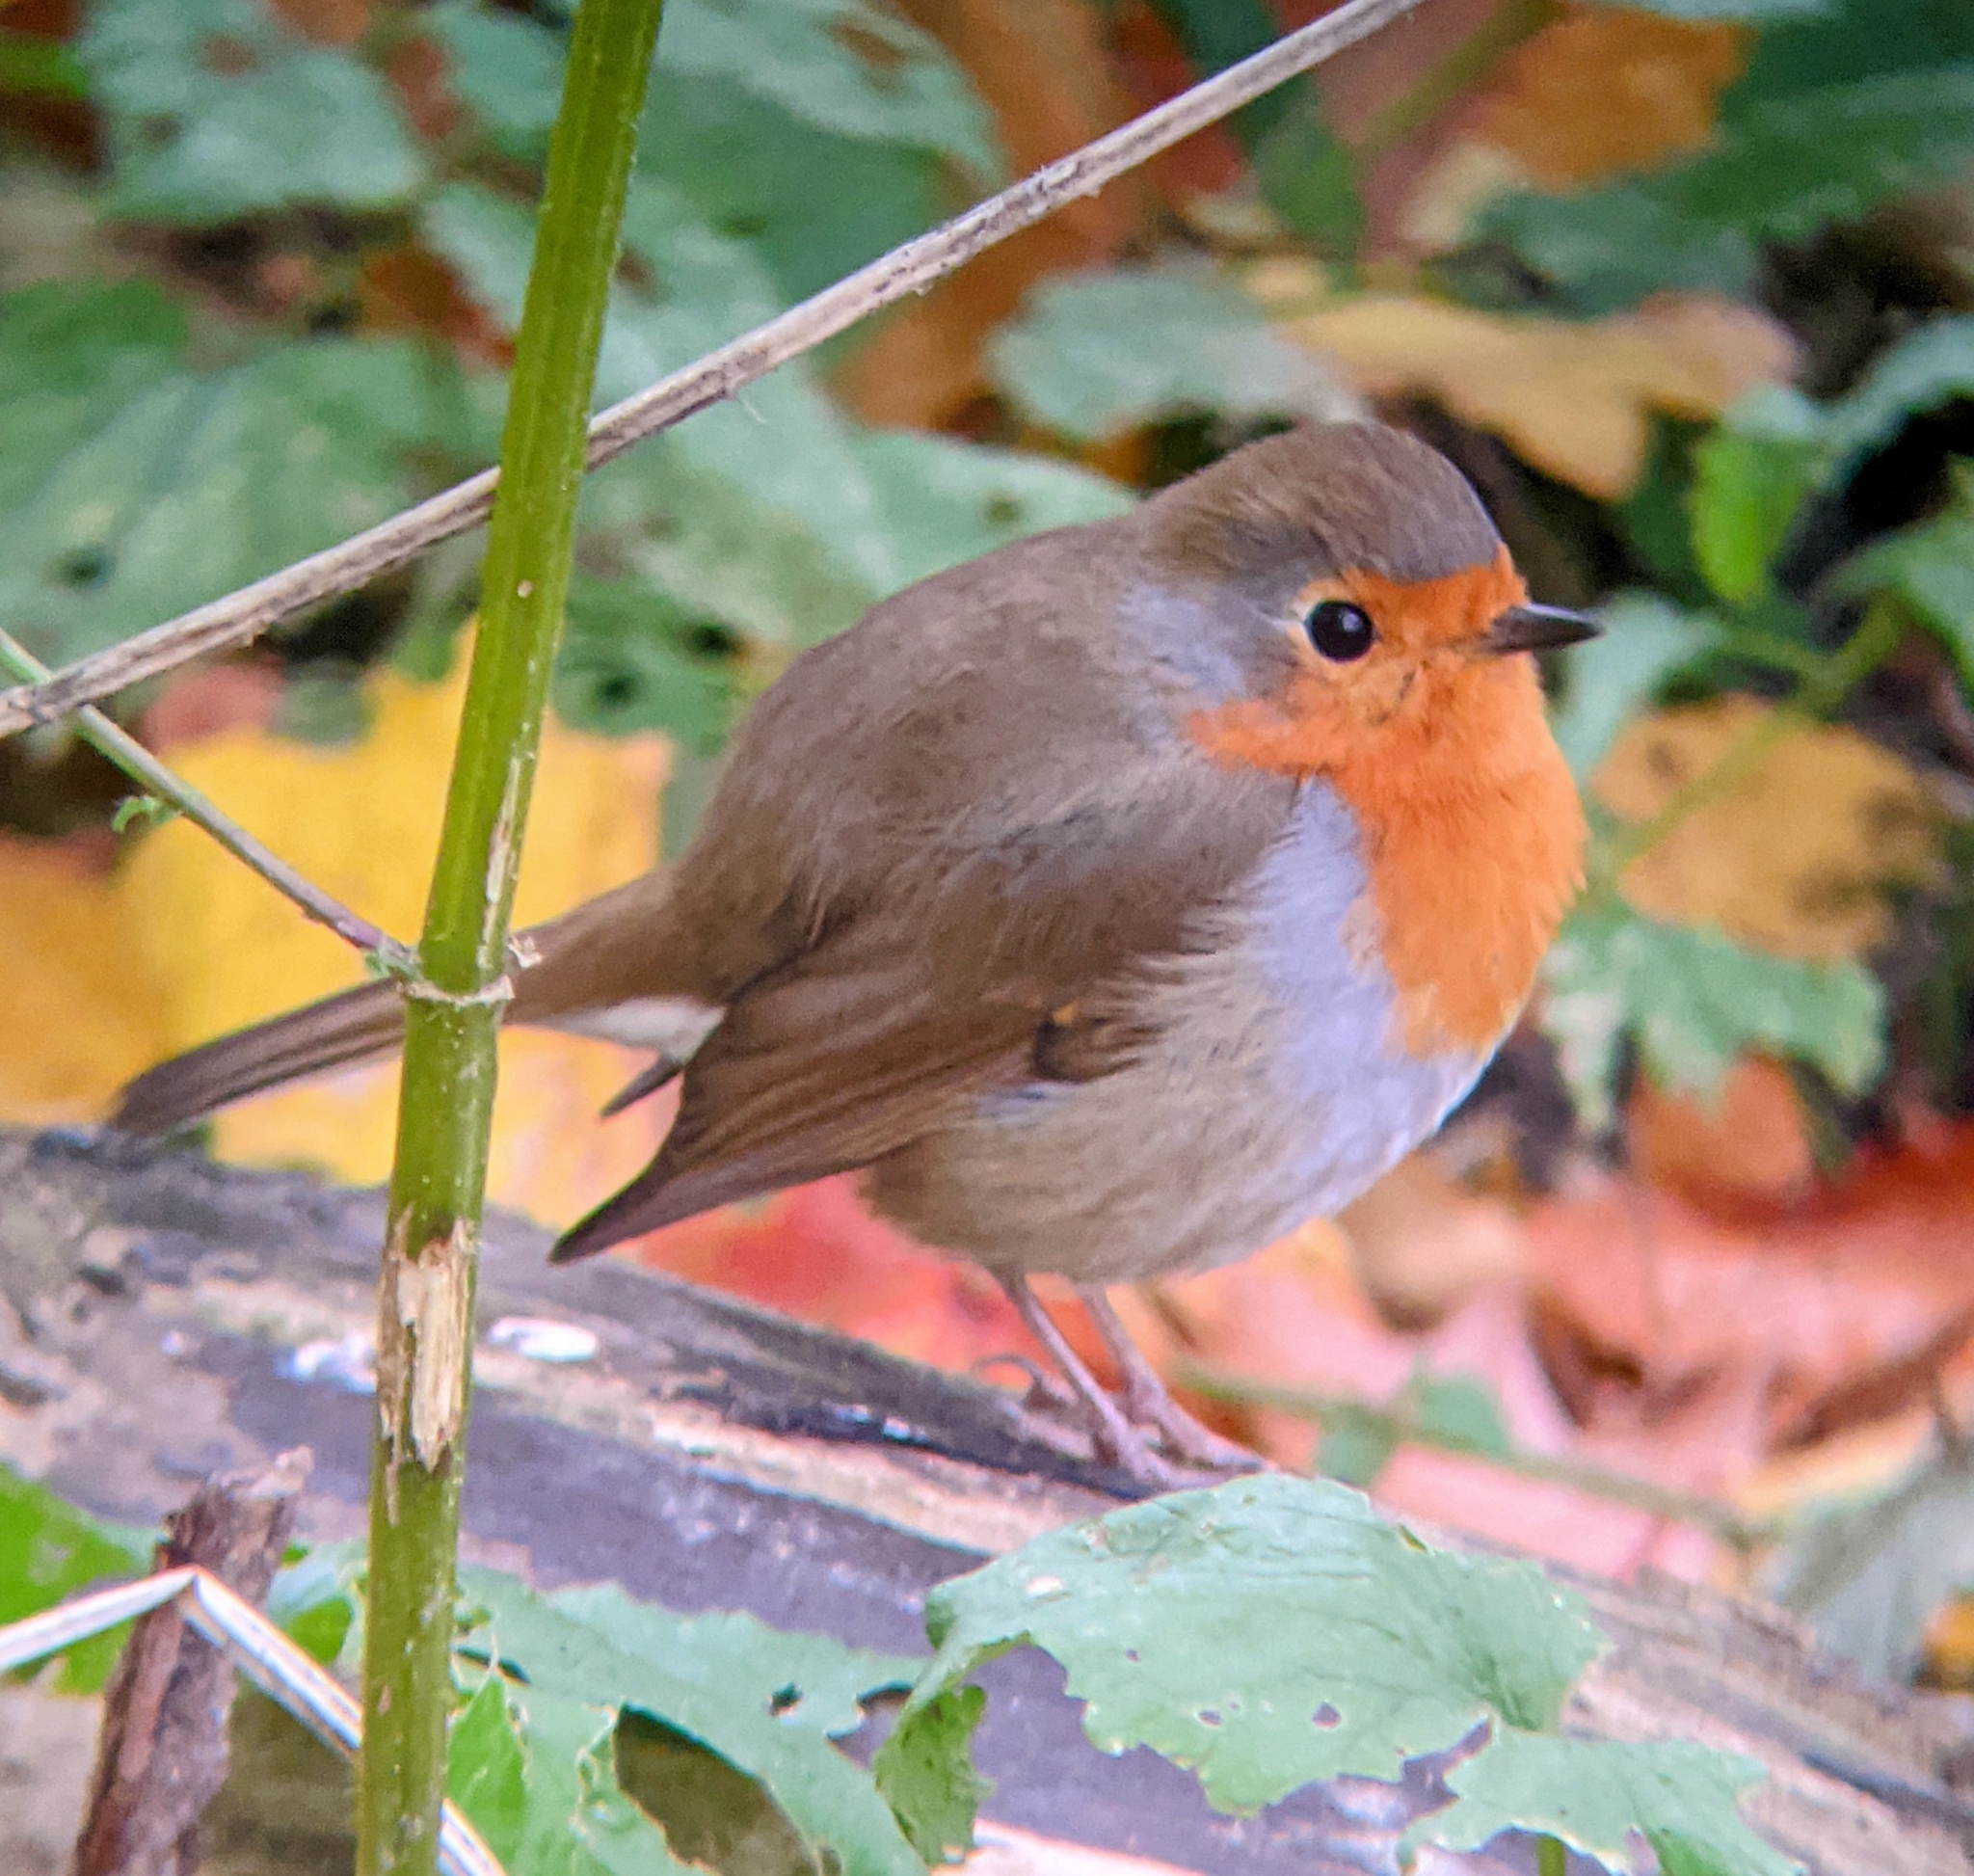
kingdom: Animalia
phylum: Chordata
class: Aves
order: Passeriformes
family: Muscicapidae
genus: Erithacus
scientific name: Erithacus rubecula
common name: European robin
